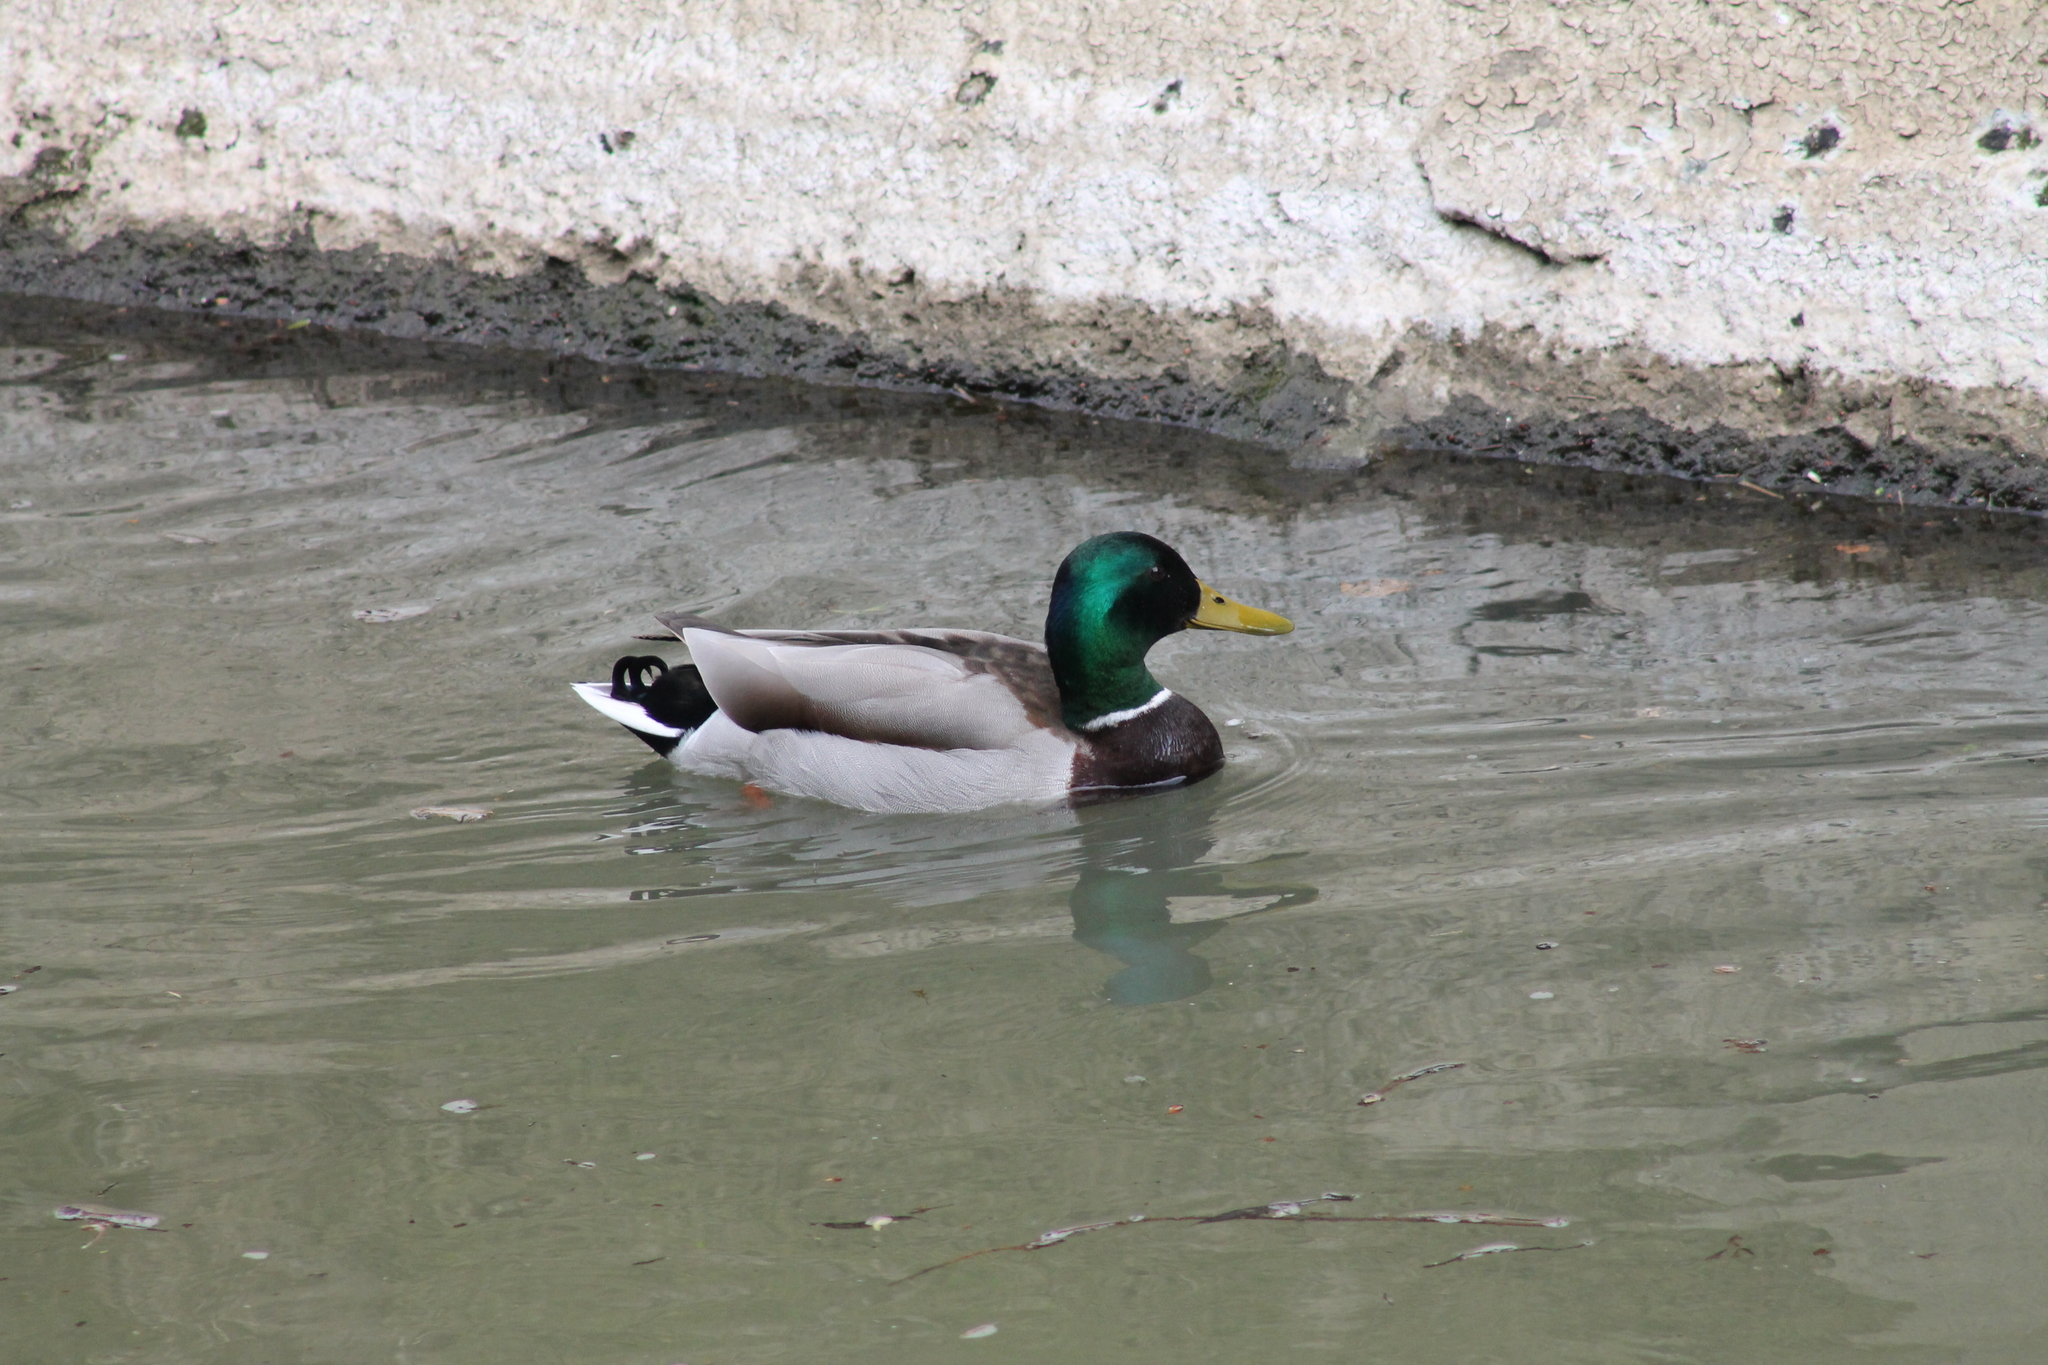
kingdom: Animalia
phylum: Chordata
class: Aves
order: Anseriformes
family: Anatidae
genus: Anas
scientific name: Anas platyrhynchos
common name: Mallard
